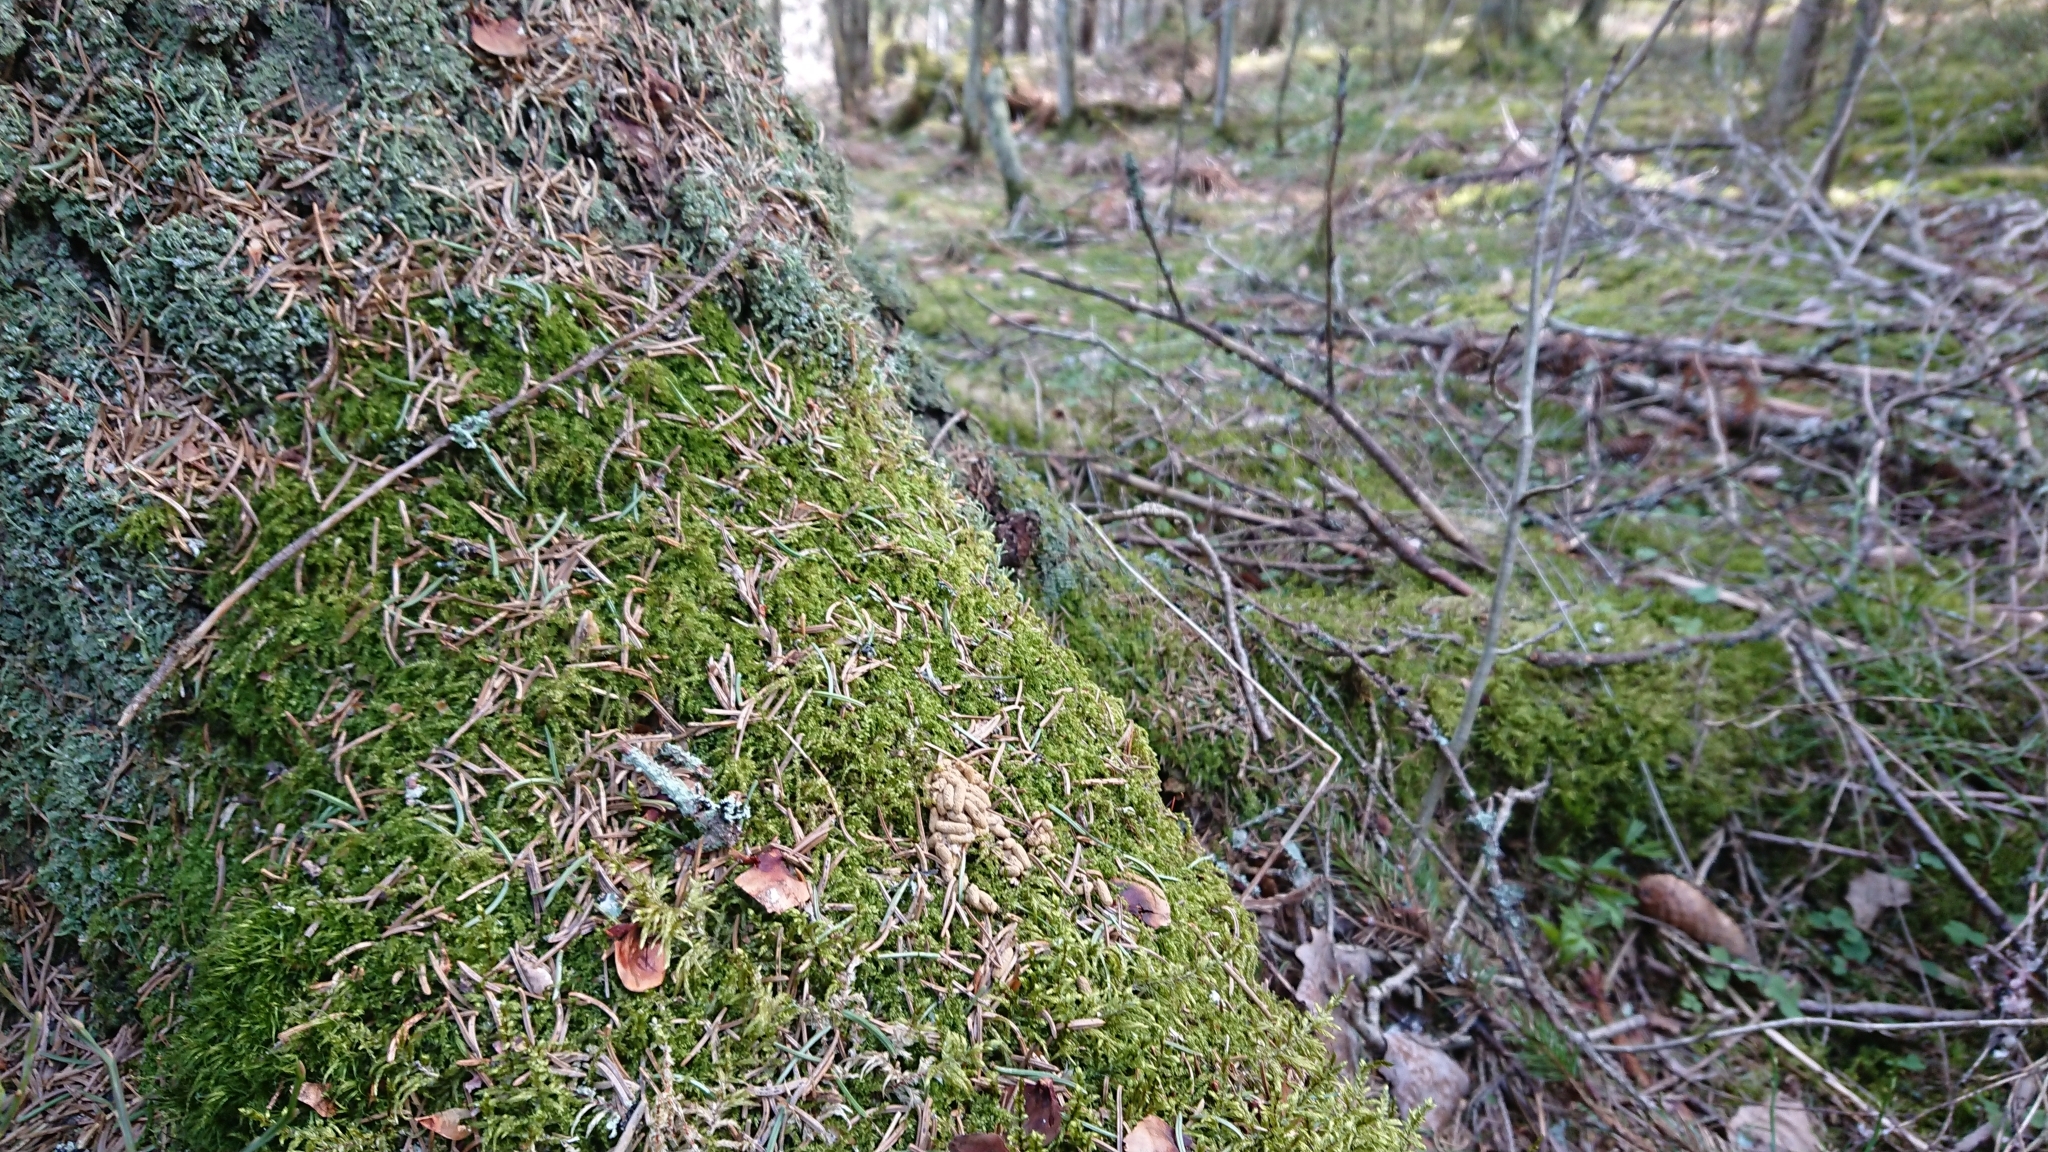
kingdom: Animalia
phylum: Chordata
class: Mammalia
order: Rodentia
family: Sciuridae
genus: Pteromys
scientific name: Pteromys volans
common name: Siberian flying squirrel
